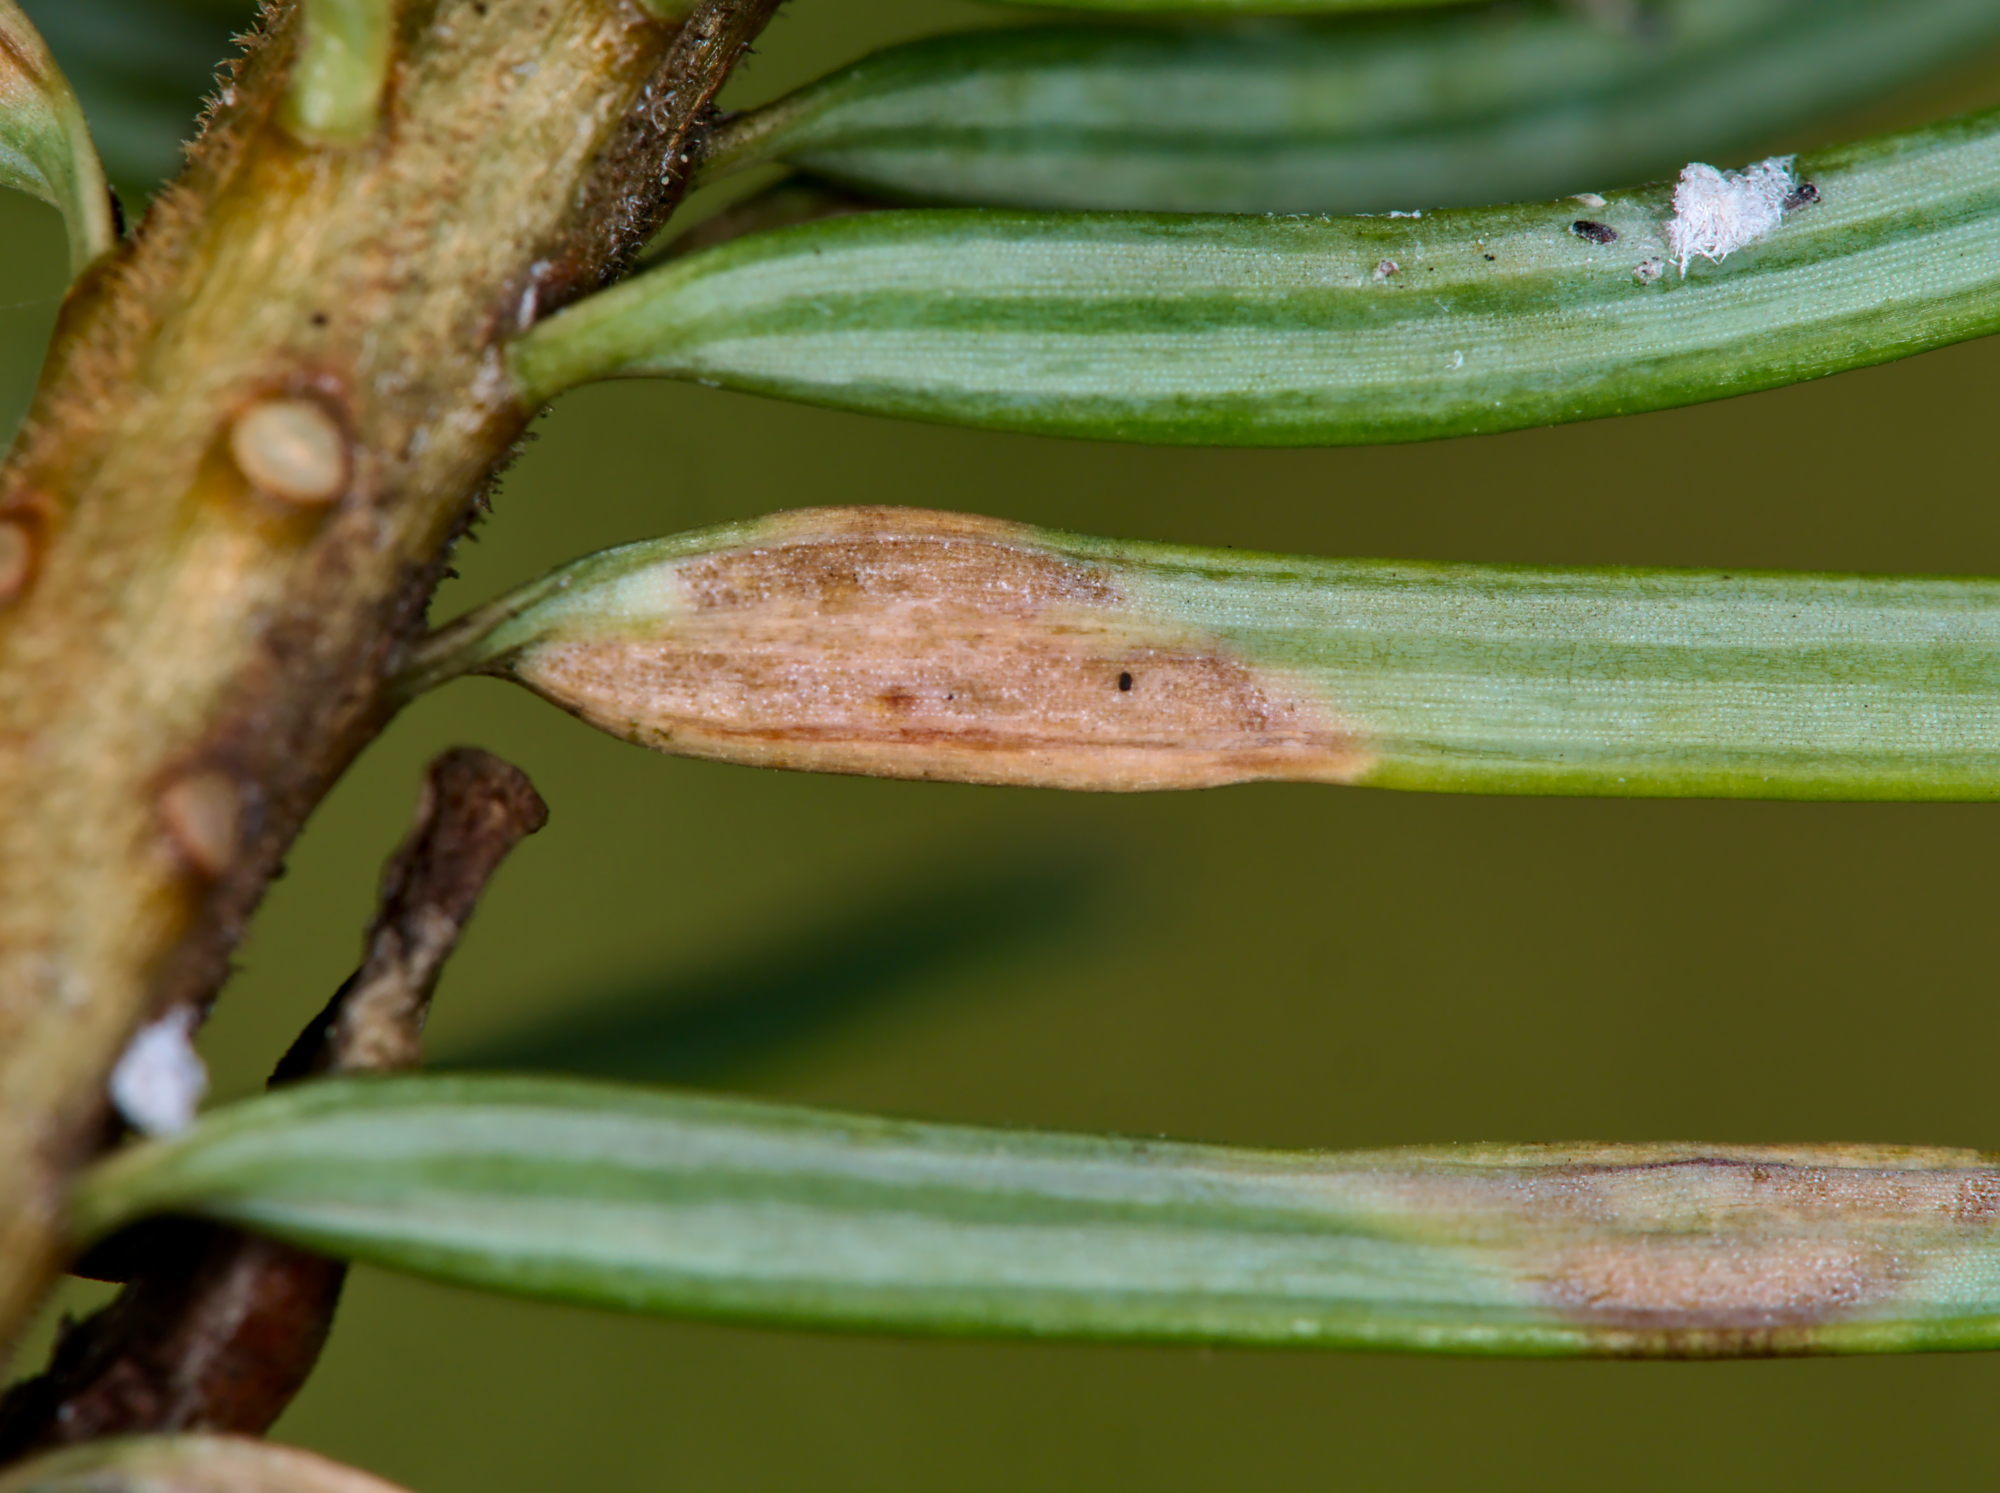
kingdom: Animalia
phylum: Arthropoda
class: Insecta
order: Diptera
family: Cecidomyiidae
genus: Contarinia
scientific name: Contarinia pseudotsugae
